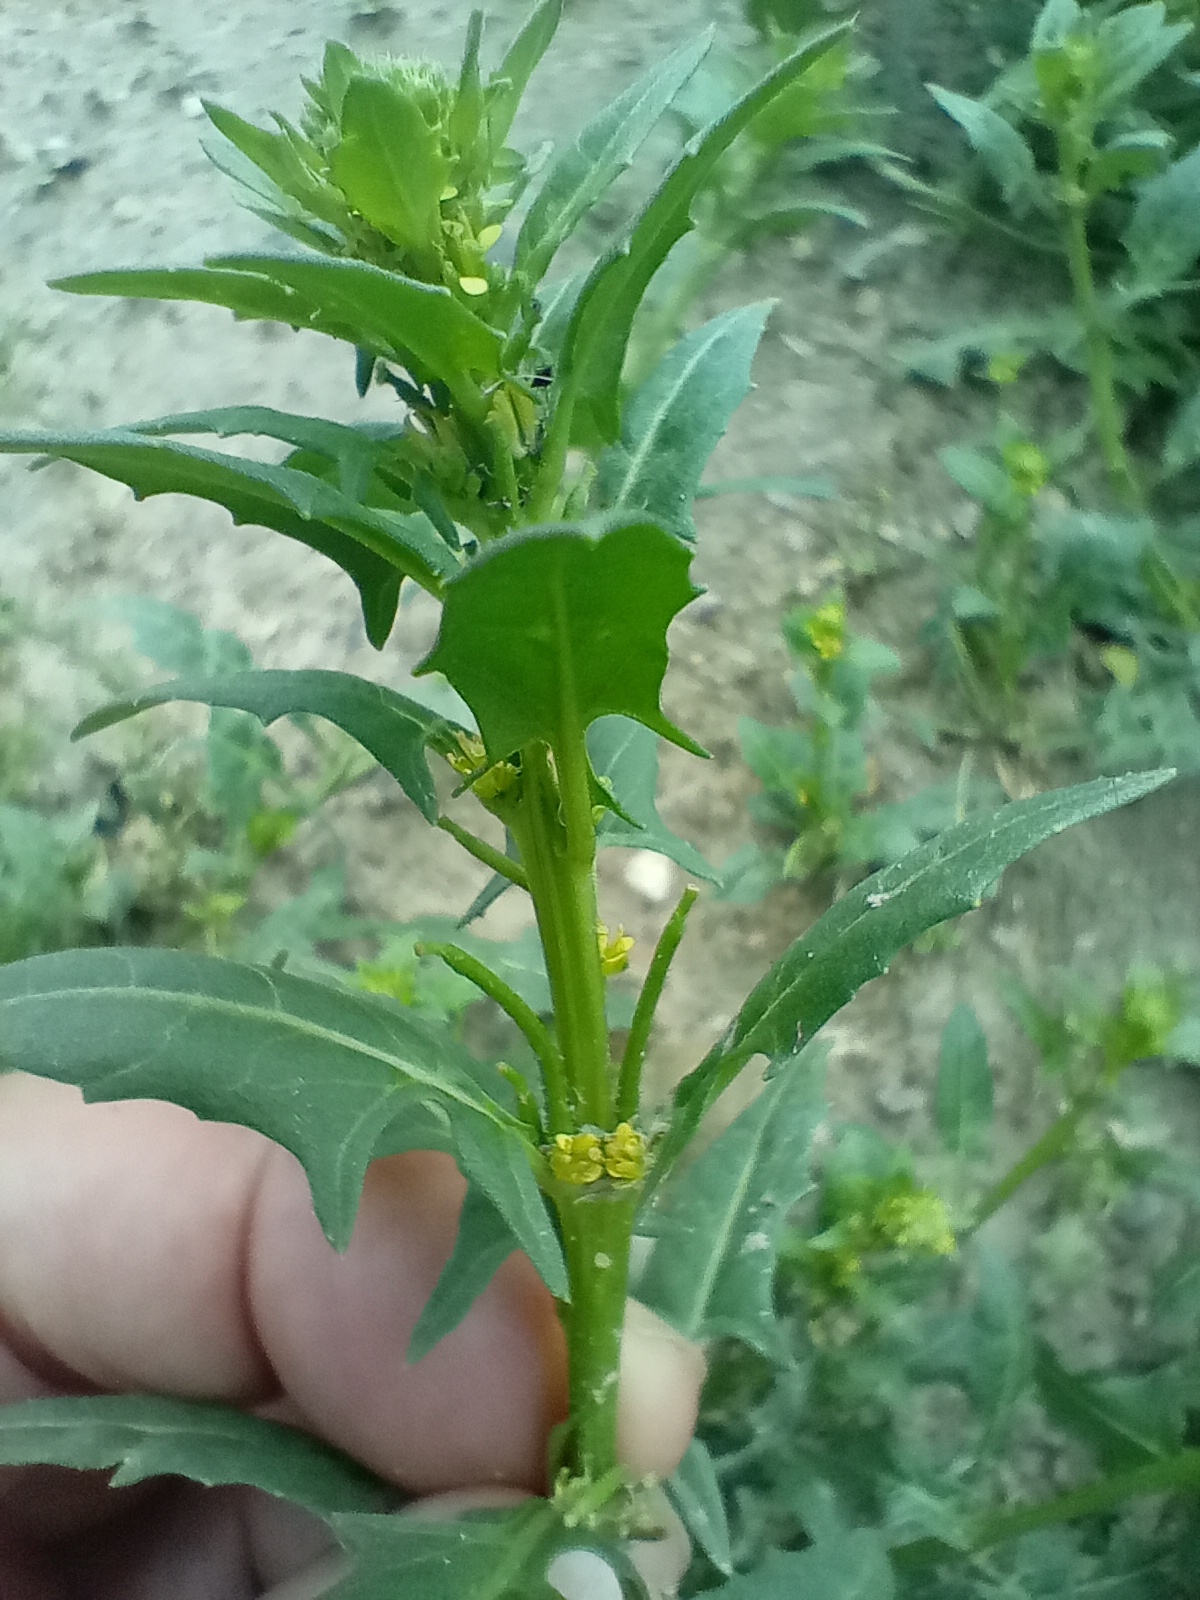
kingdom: Plantae
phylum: Tracheophyta
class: Magnoliopsida
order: Brassicales
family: Brassicaceae
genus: Sisymbrium
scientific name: Sisymbrium polyceratium
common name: Shortfruit hedgemustard
